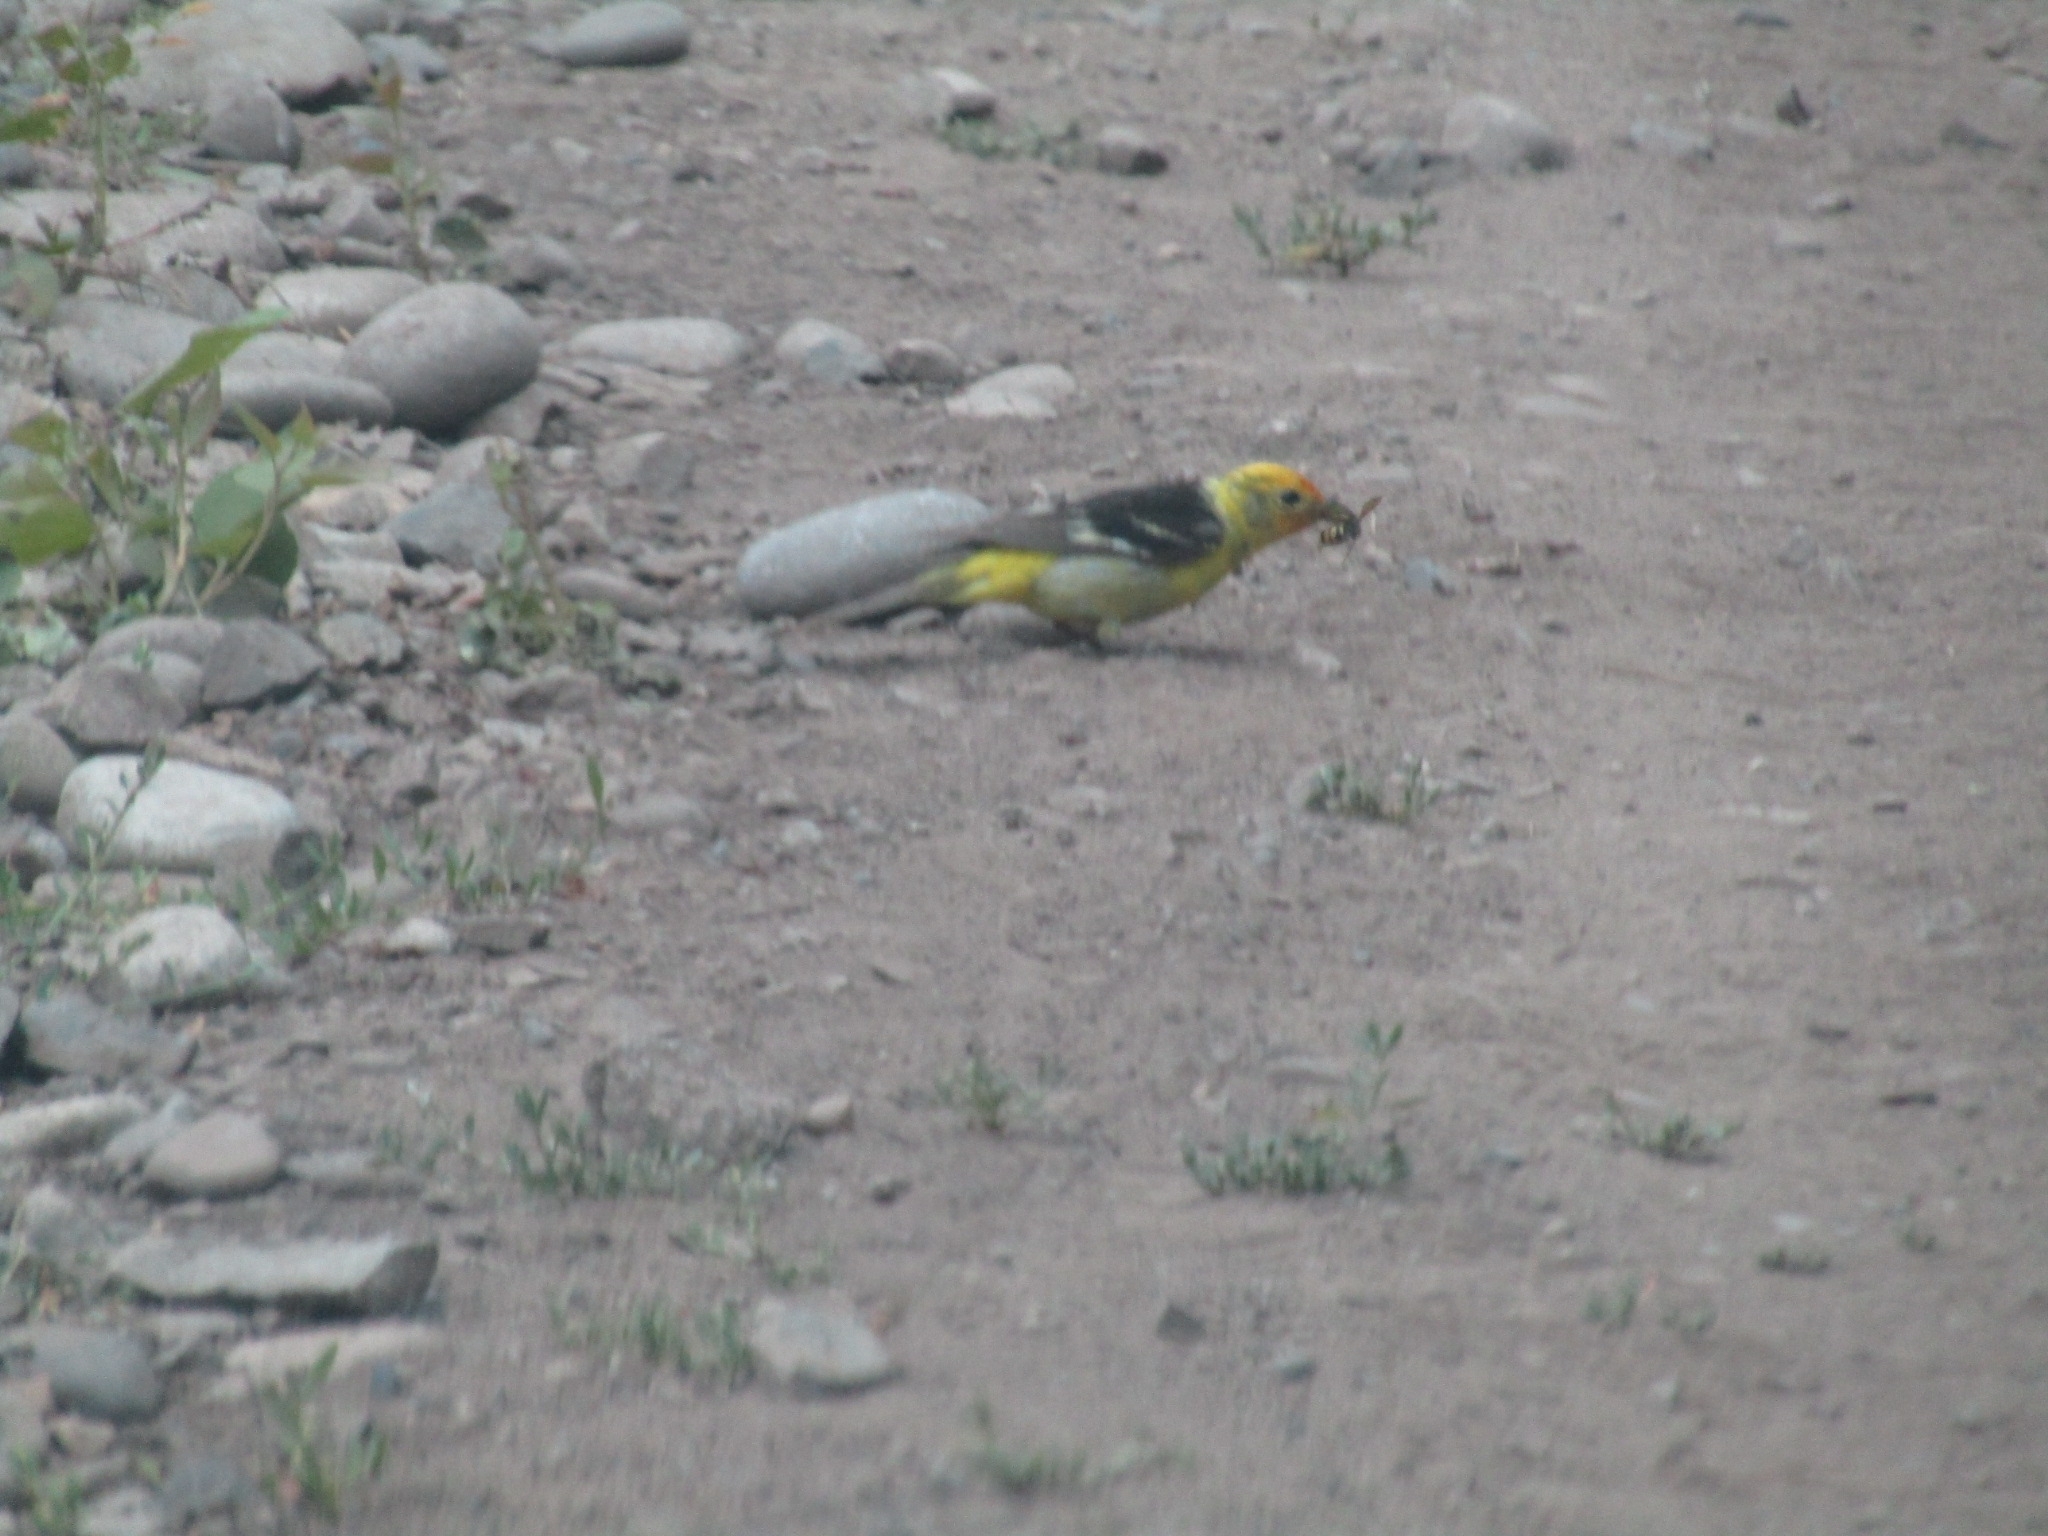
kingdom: Animalia
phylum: Chordata
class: Aves
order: Passeriformes
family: Cardinalidae
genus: Piranga
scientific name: Piranga ludoviciana
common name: Western tanager
